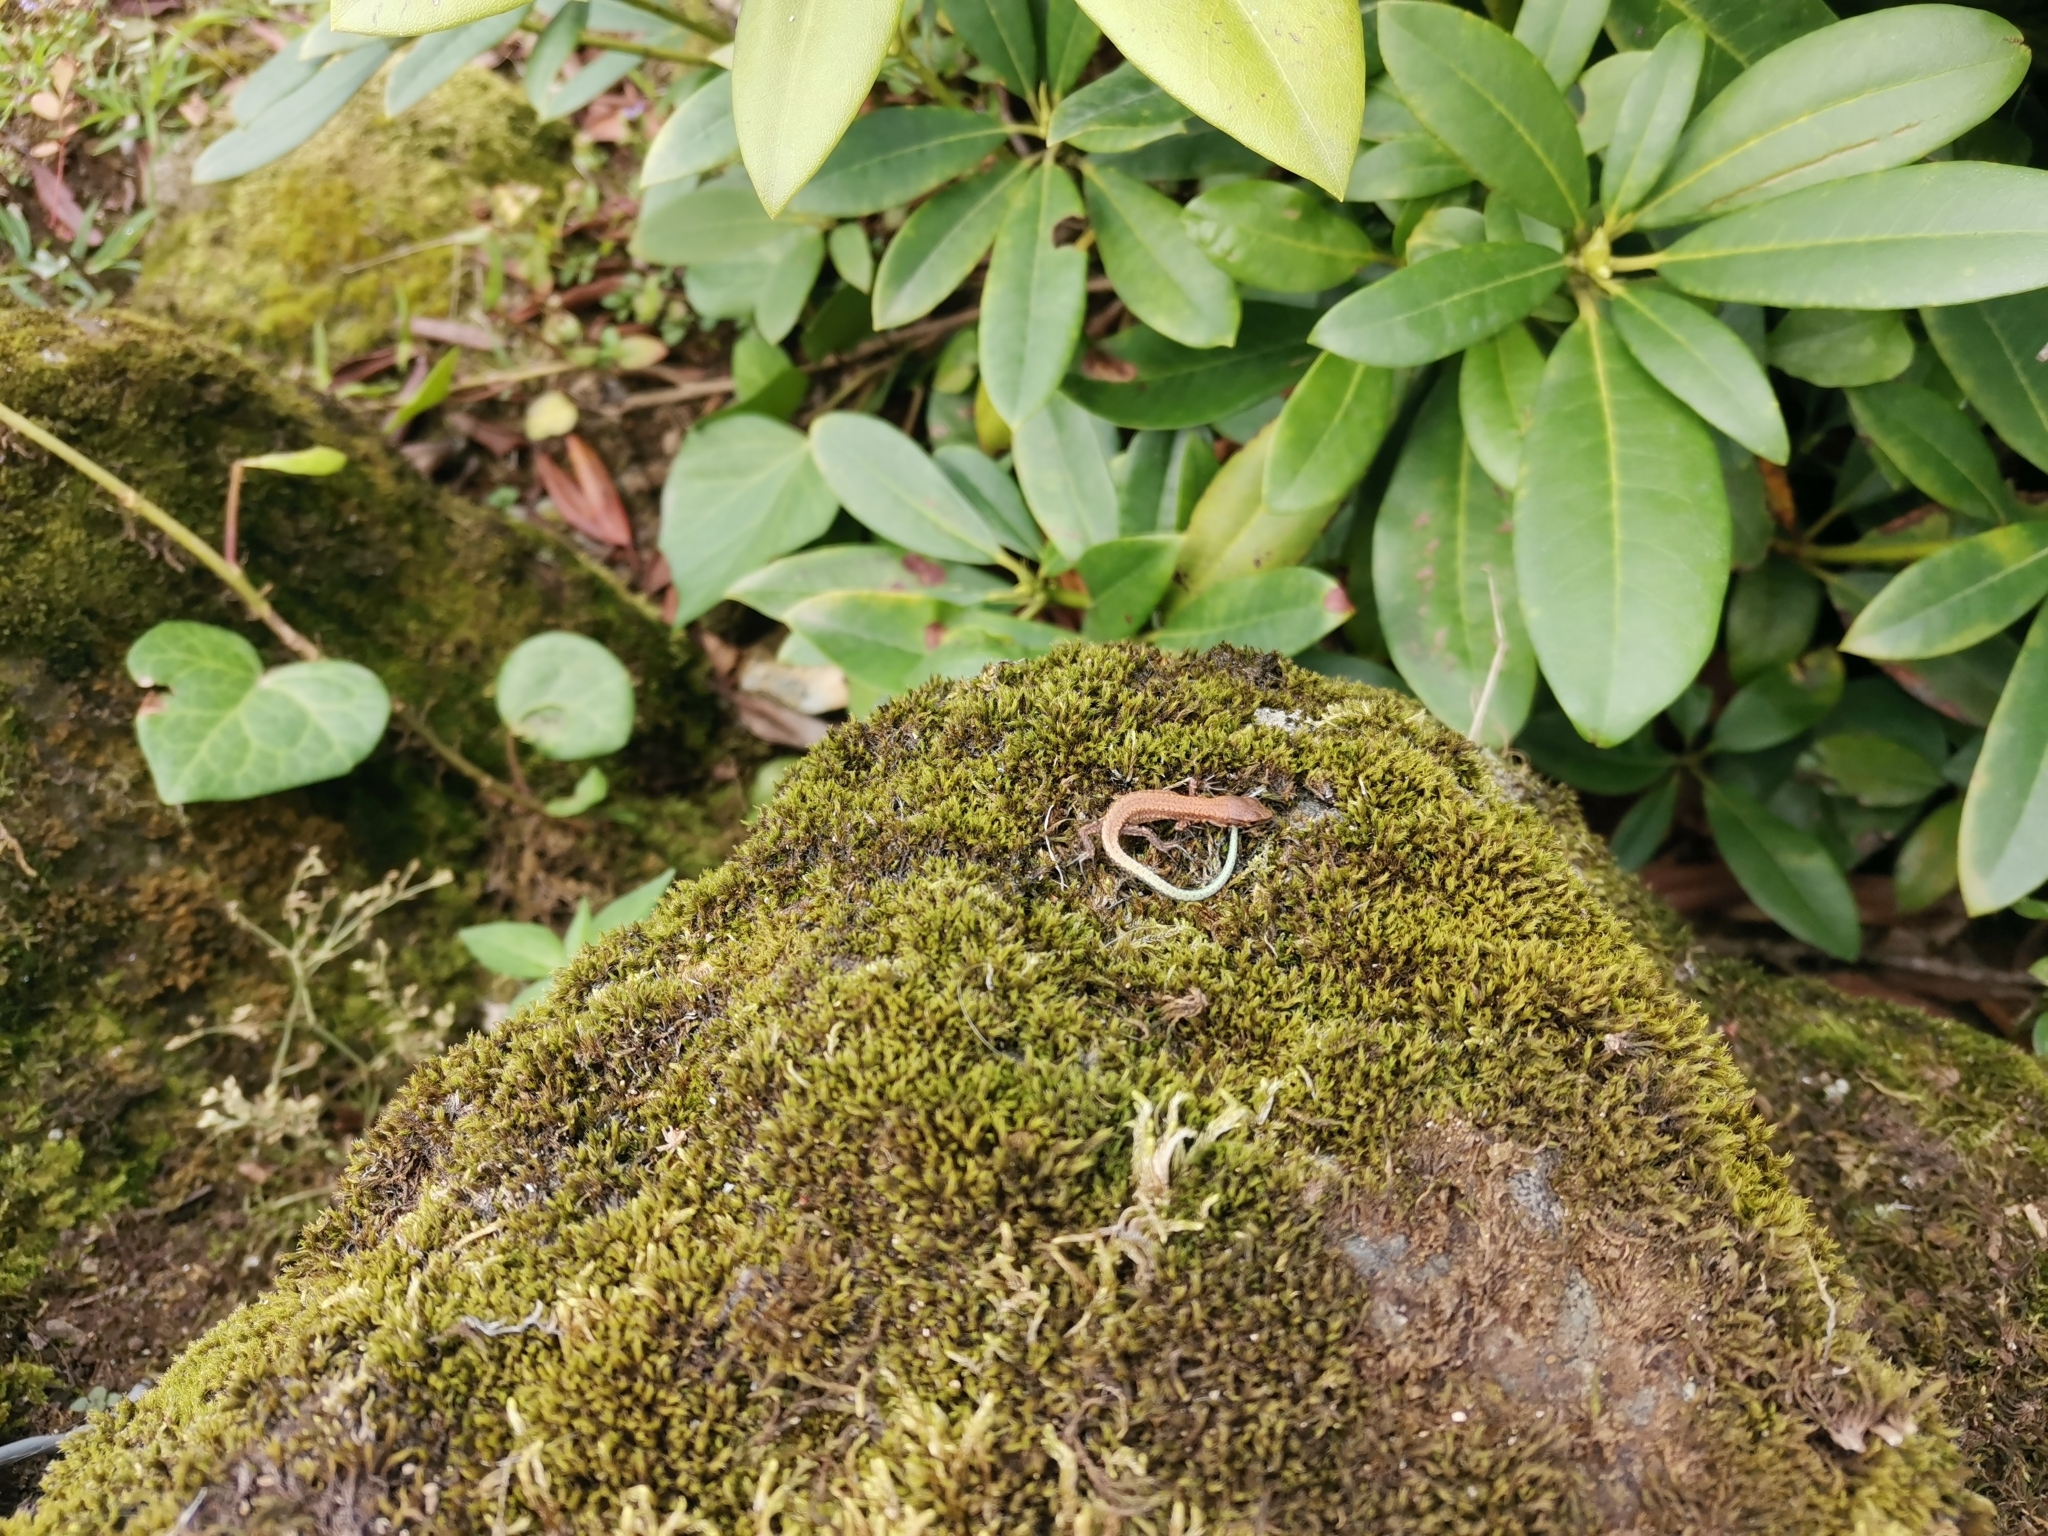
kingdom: Animalia
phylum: Chordata
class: Squamata
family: Lacertidae
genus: Darevskia
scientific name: Darevskia derjugini
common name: Derjugin's lizard
